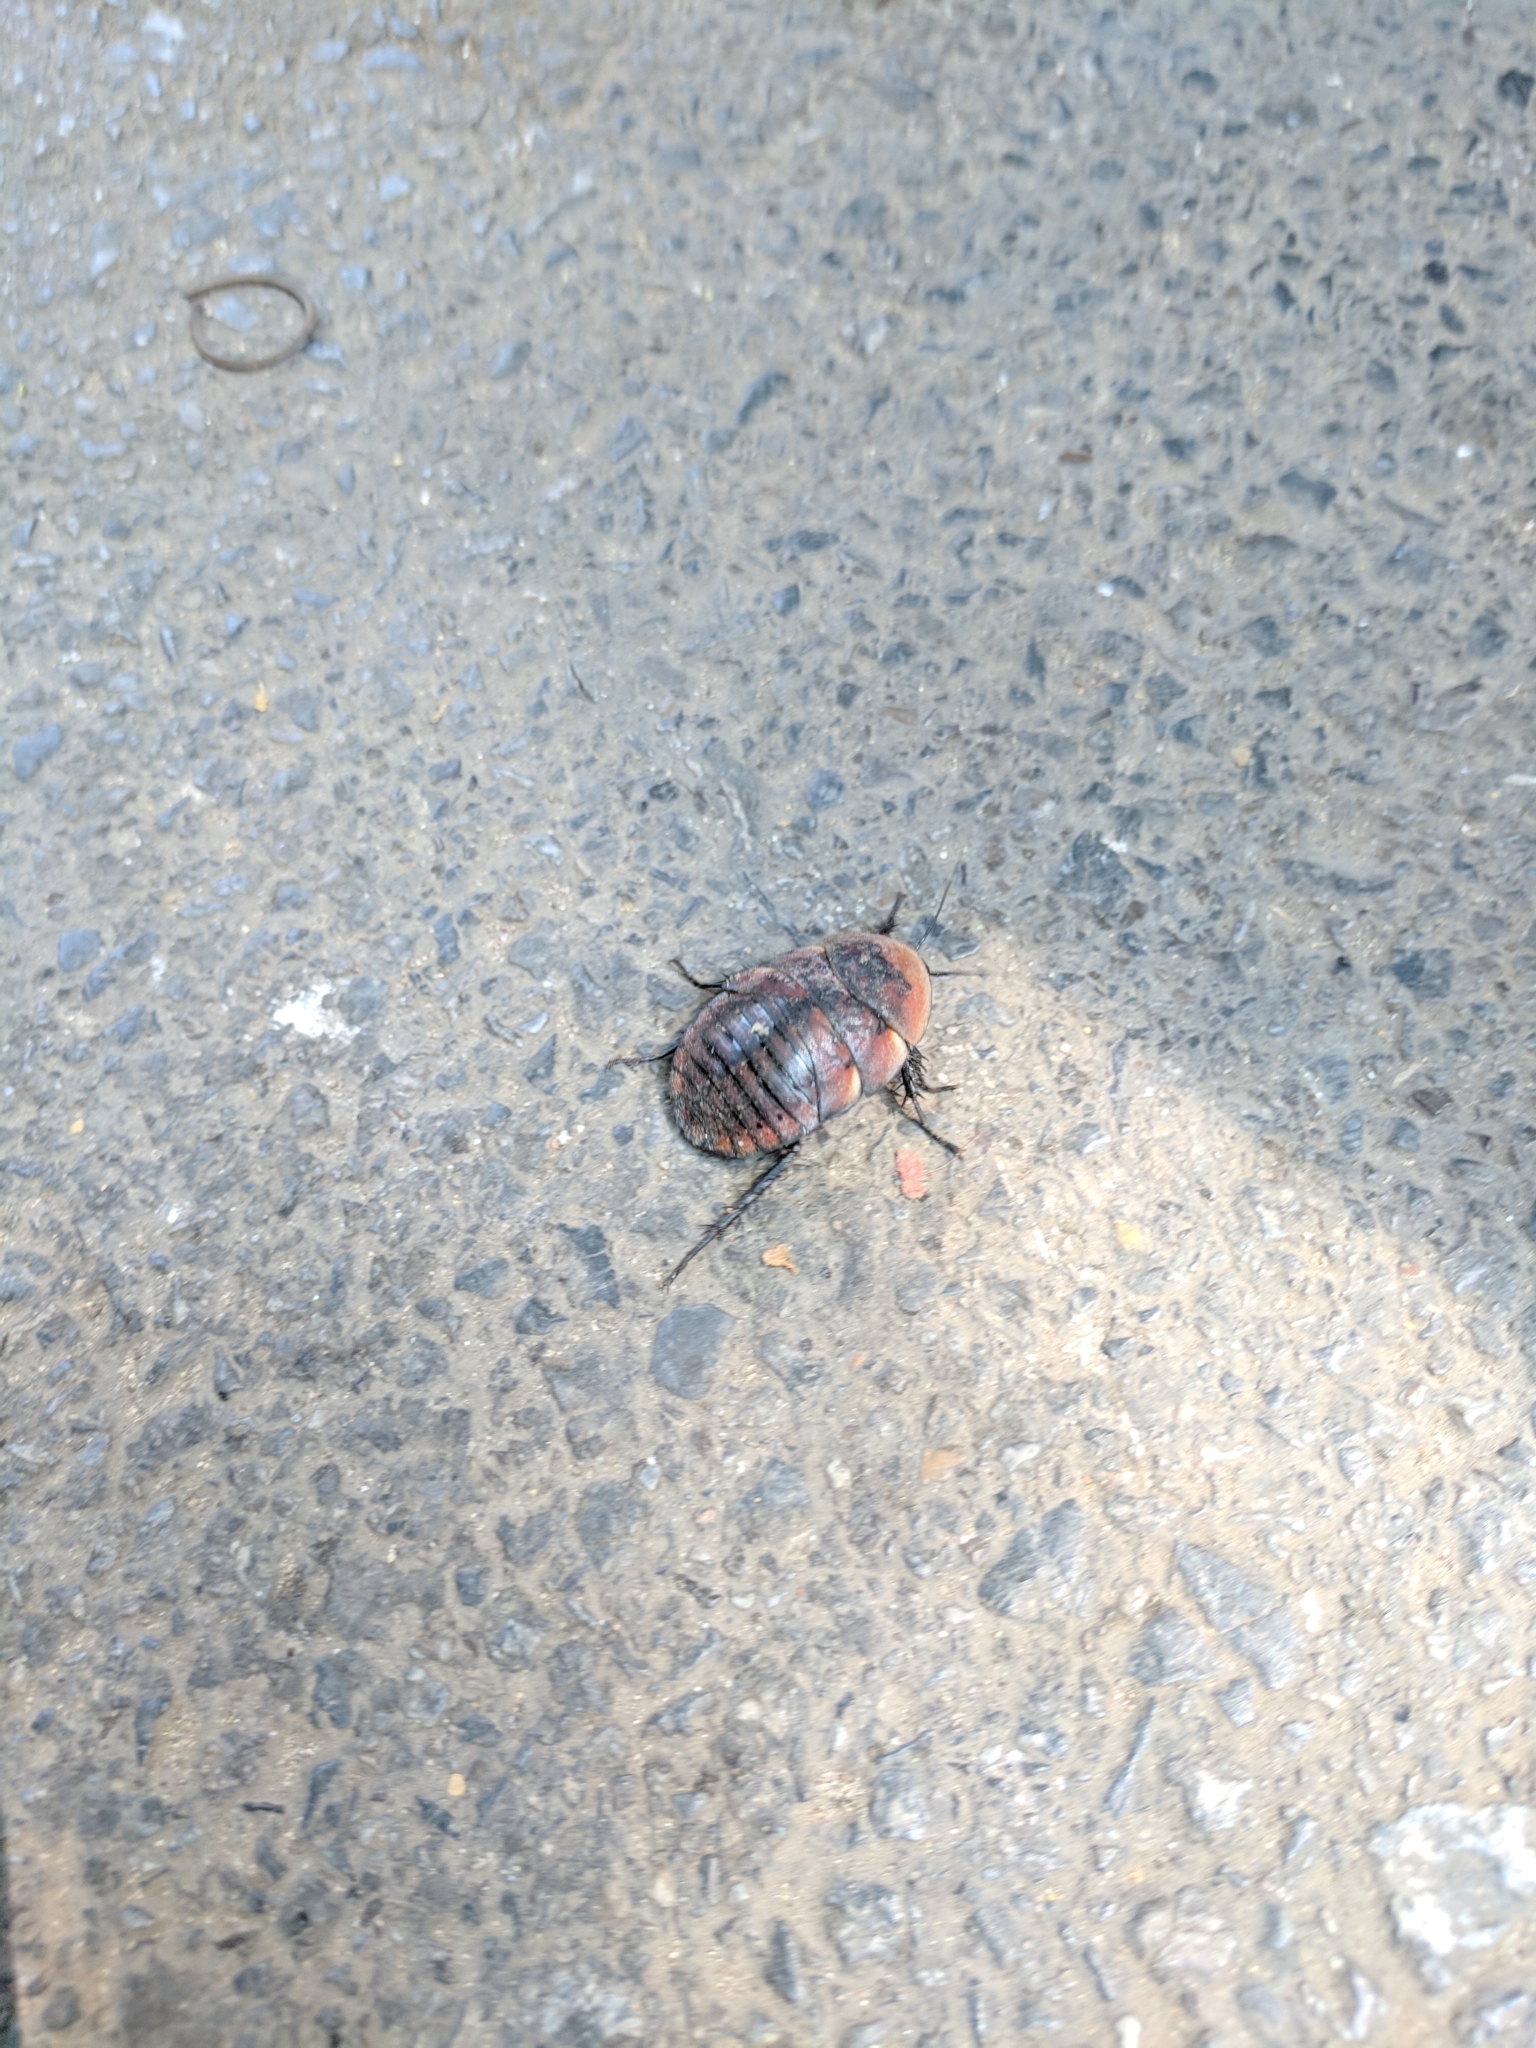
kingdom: Animalia
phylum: Arthropoda
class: Insecta
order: Blattodea
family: Corydiidae
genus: Polyphaga
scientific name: Polyphaga plancyi
